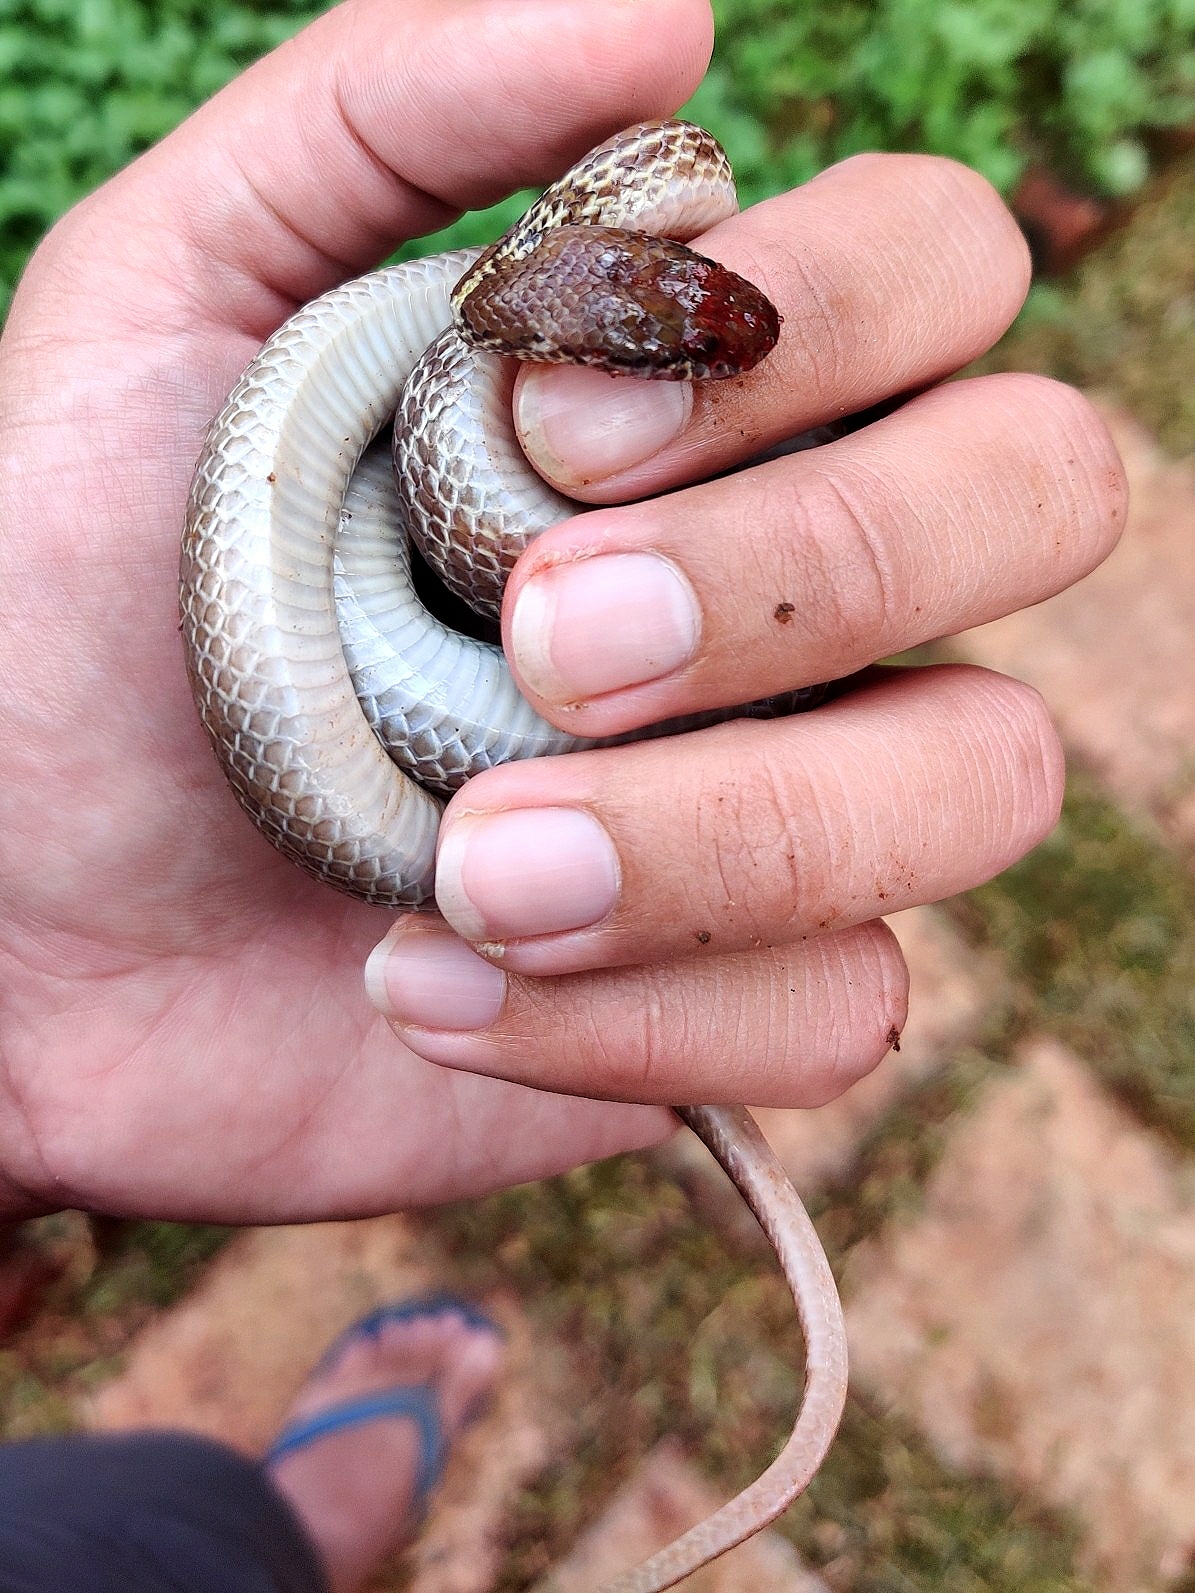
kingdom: Animalia
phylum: Chordata
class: Squamata
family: Colubridae
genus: Lycodon
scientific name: Lycodon fasciolatus
